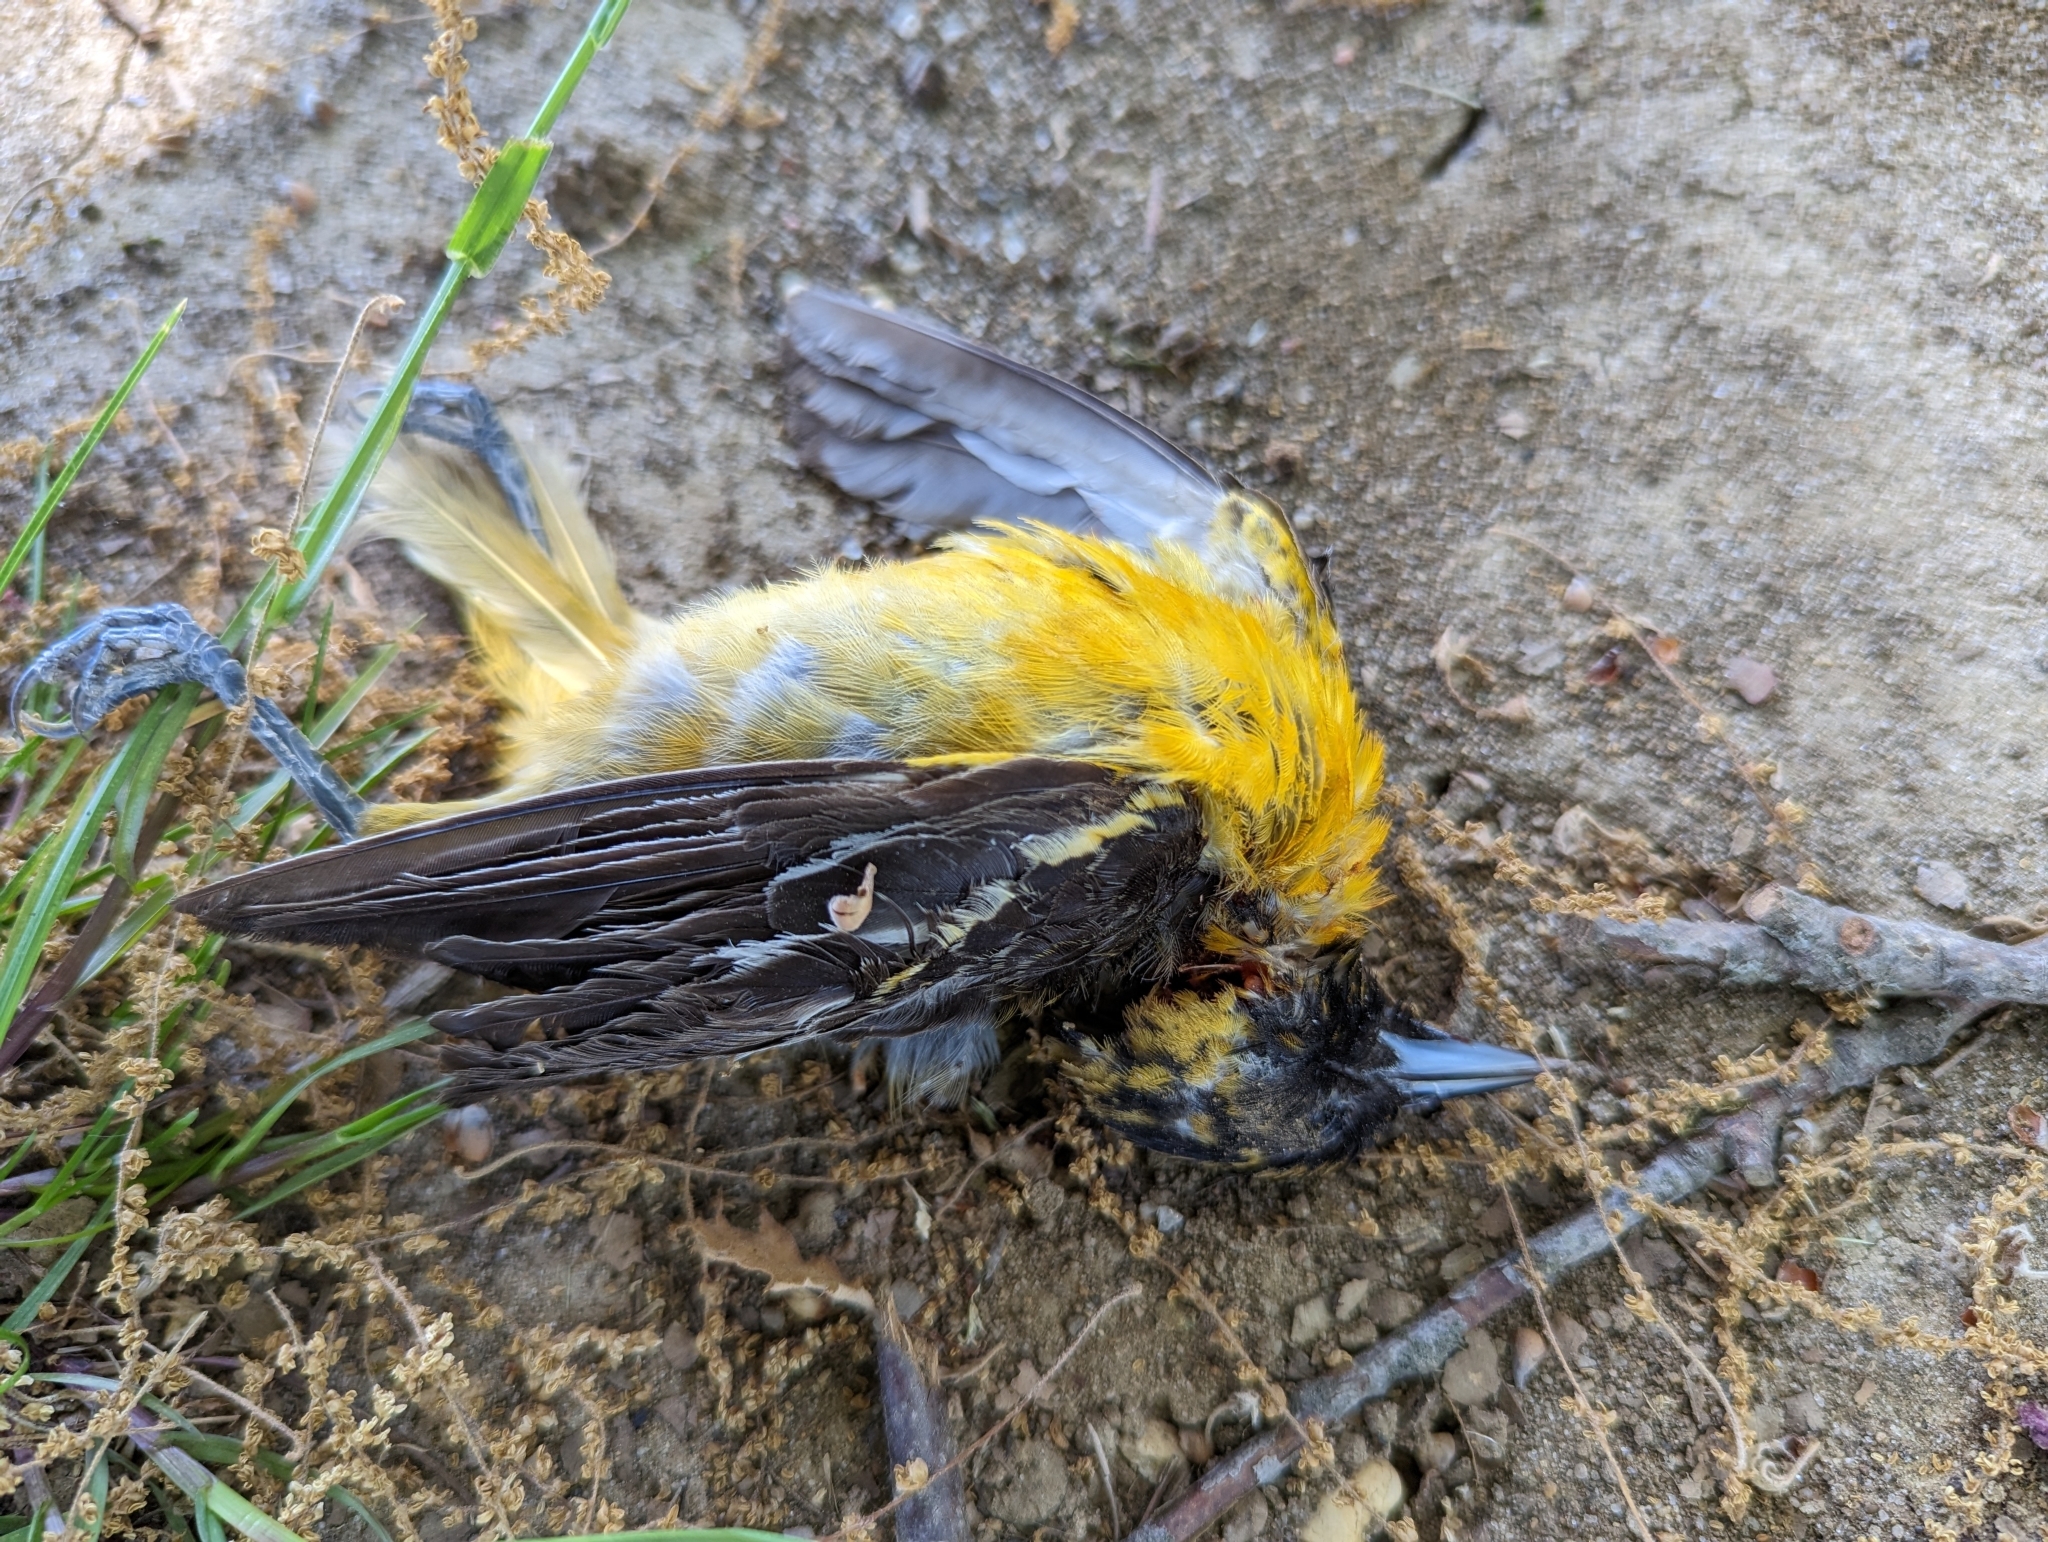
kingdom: Animalia
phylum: Chordata
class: Aves
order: Passeriformes
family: Icteridae
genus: Icterus
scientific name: Icterus galbula
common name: Baltimore oriole
